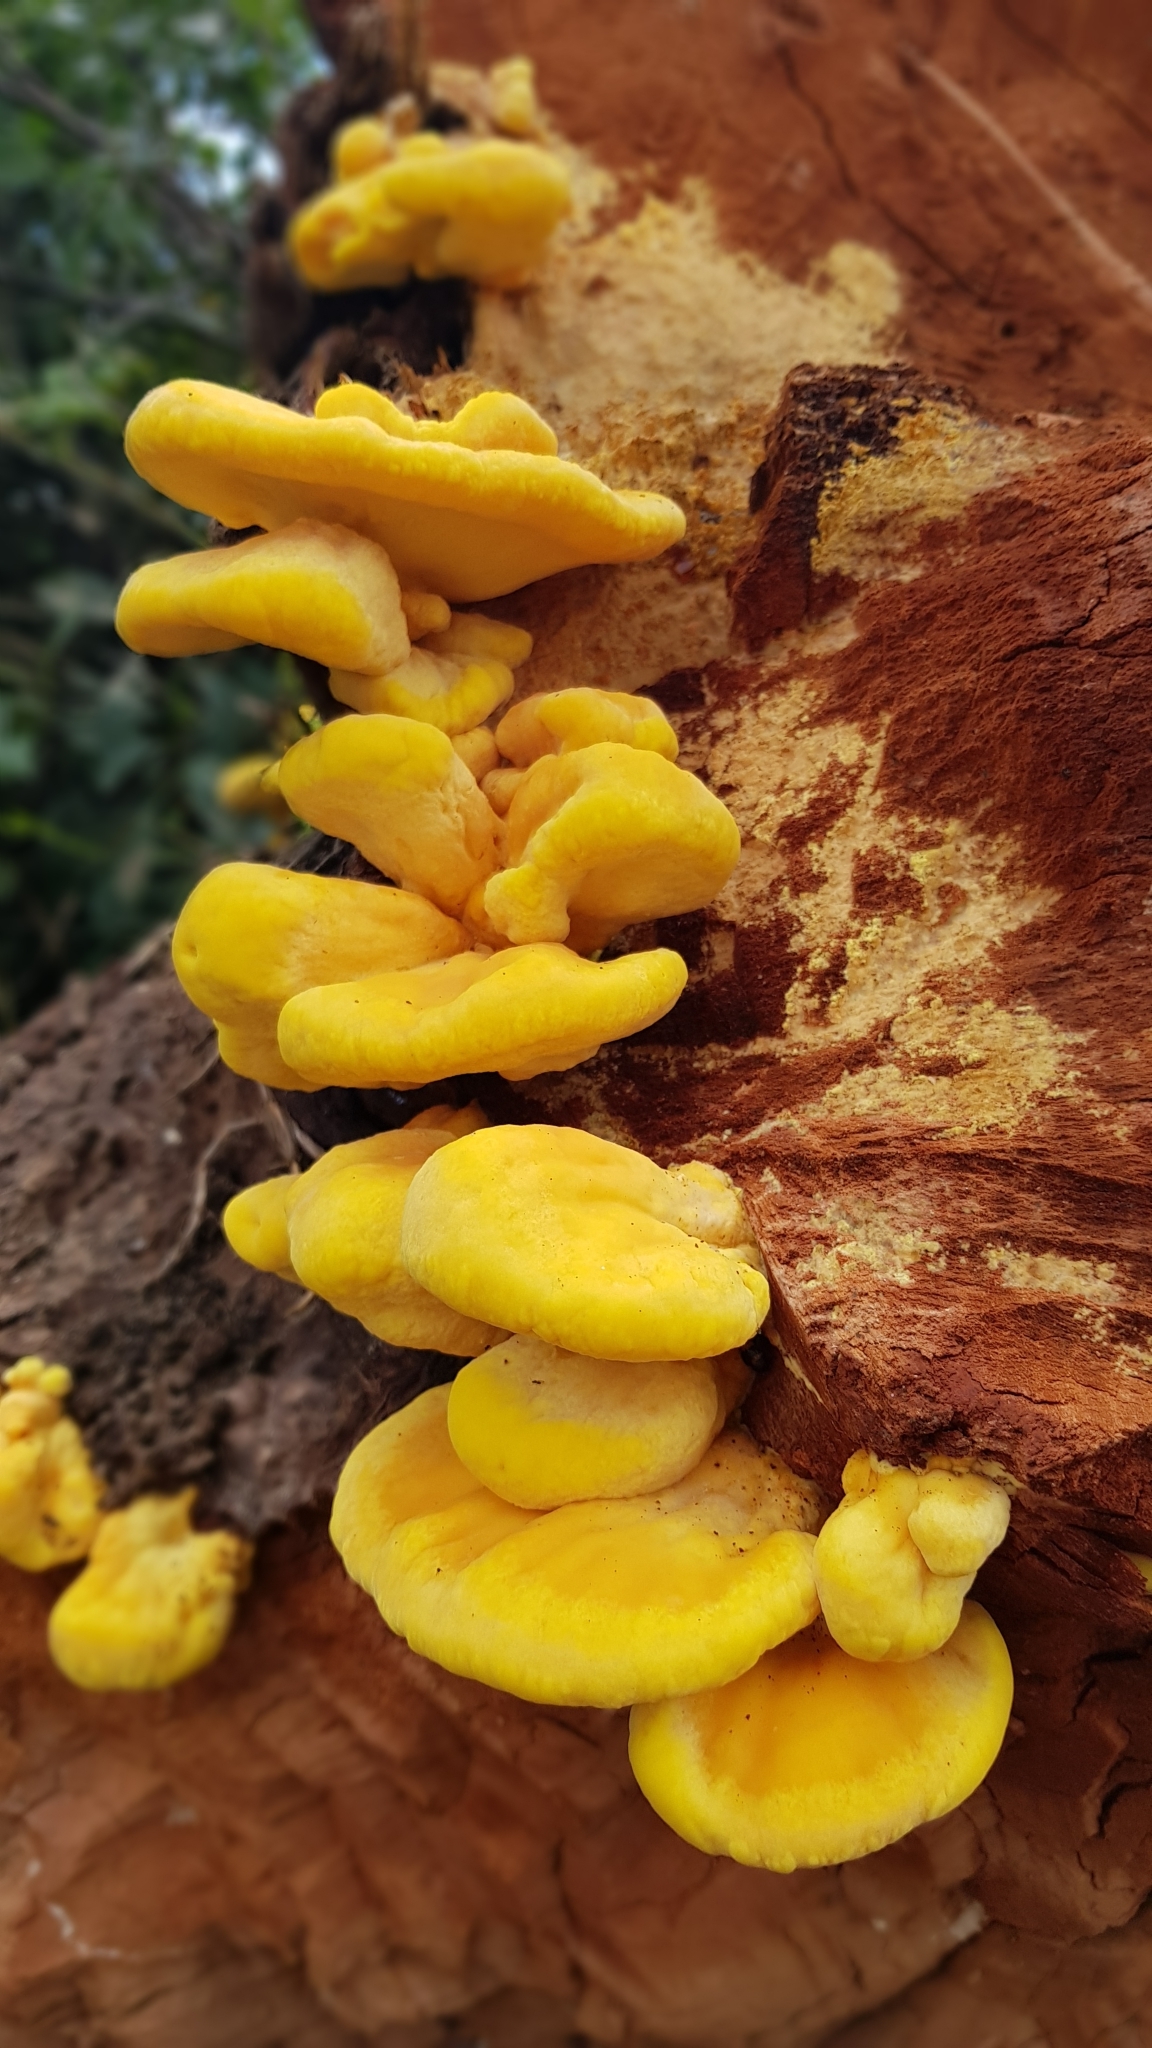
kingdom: Fungi
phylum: Basidiomycota
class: Agaricomycetes
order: Polyporales
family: Laetiporaceae
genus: Laetiporus
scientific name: Laetiporus sulphureus
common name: Chicken of the woods
